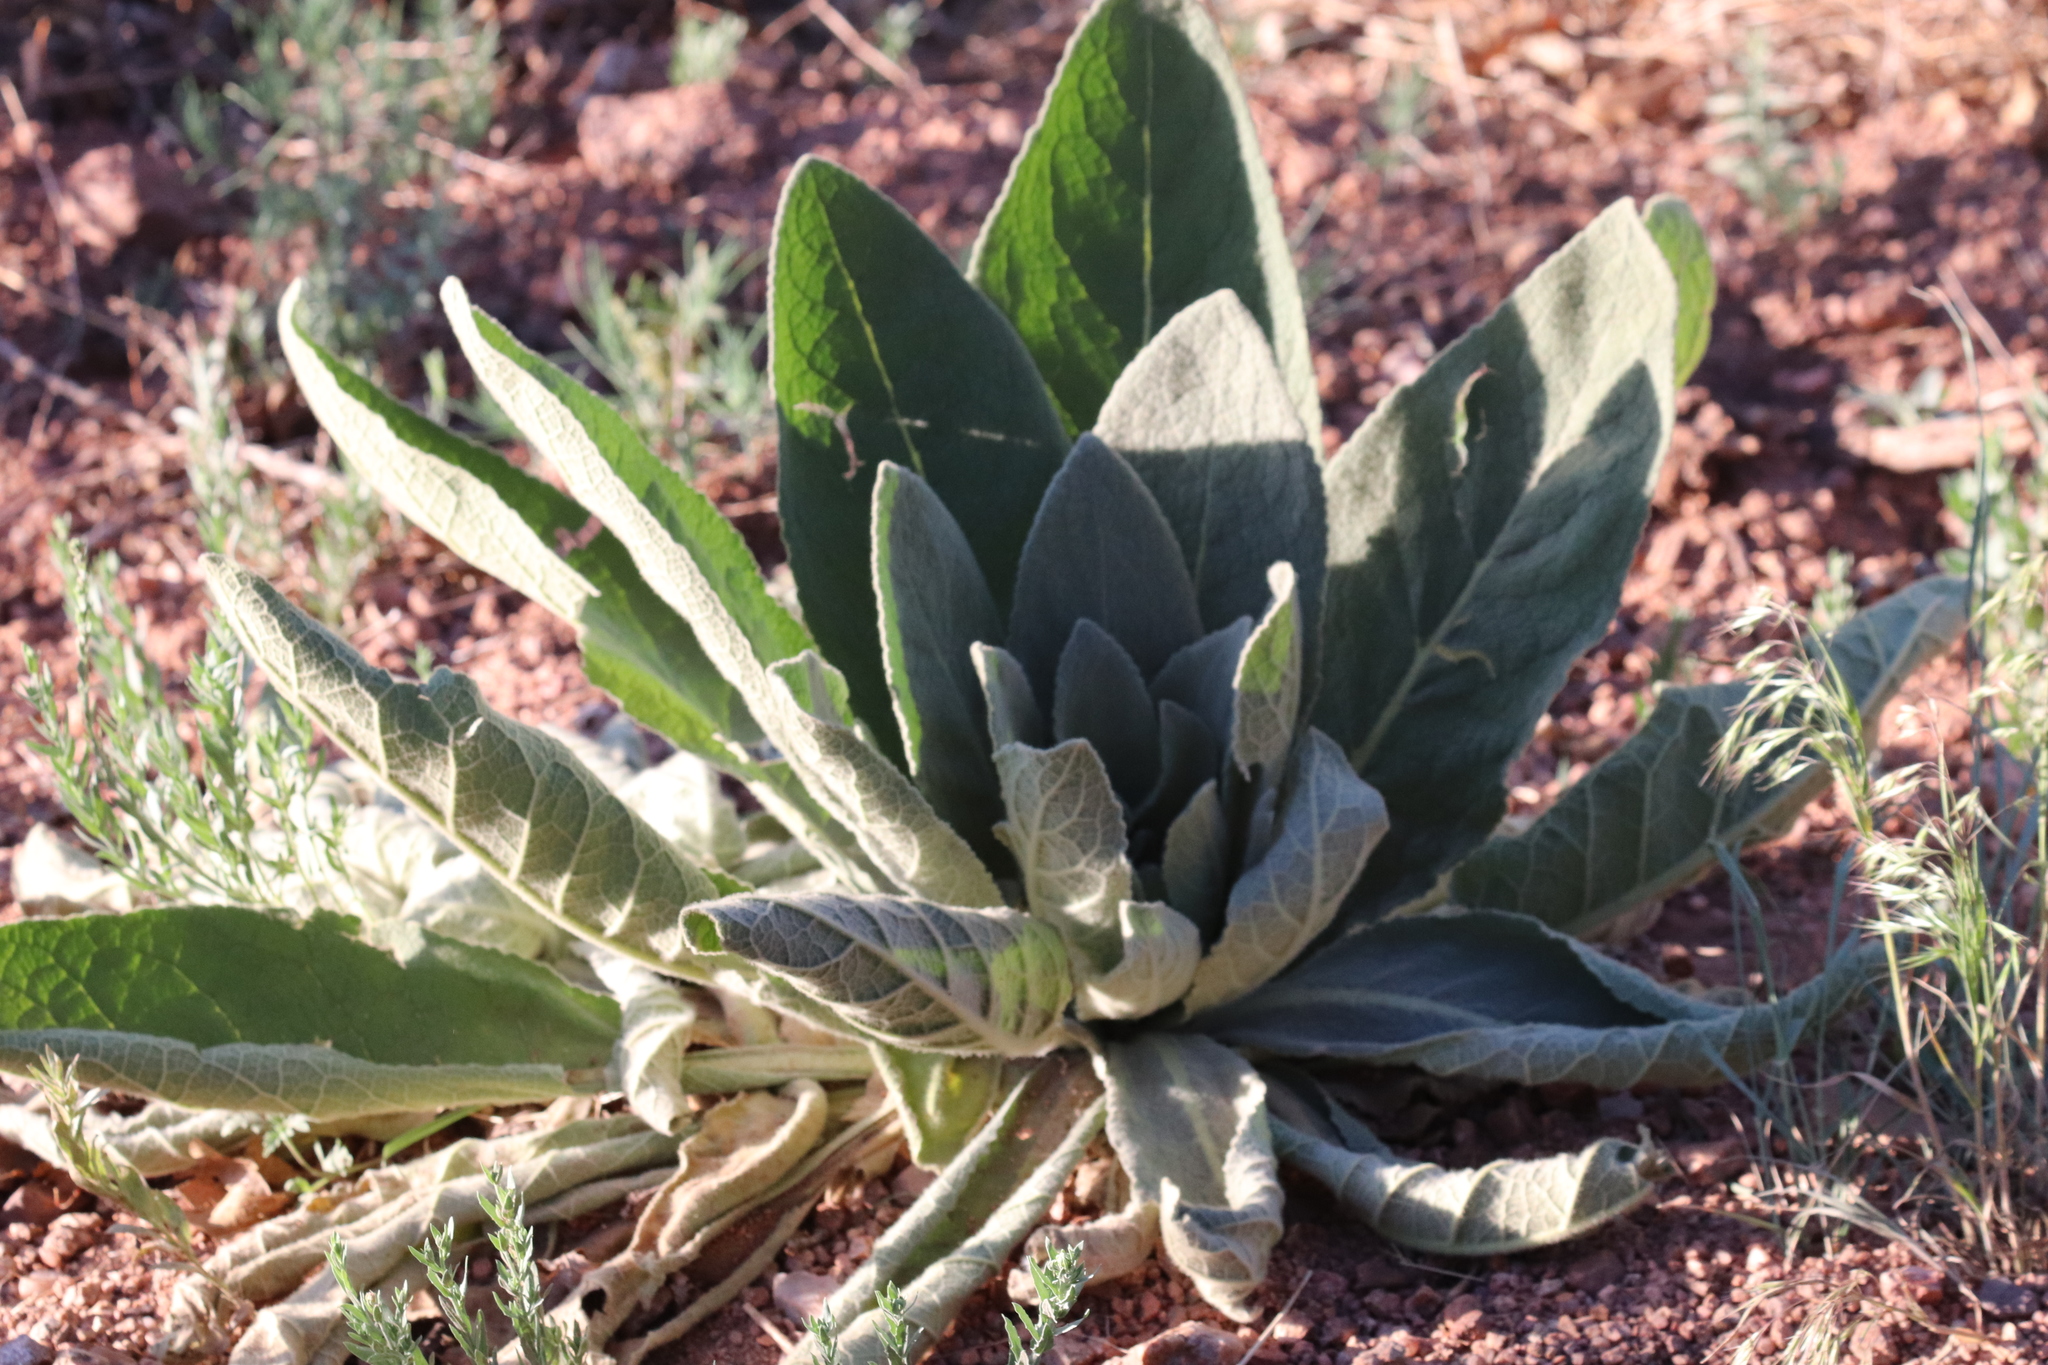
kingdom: Plantae
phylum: Tracheophyta
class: Magnoliopsida
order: Lamiales
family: Scrophulariaceae
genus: Verbascum
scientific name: Verbascum thapsus
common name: Common mullein
